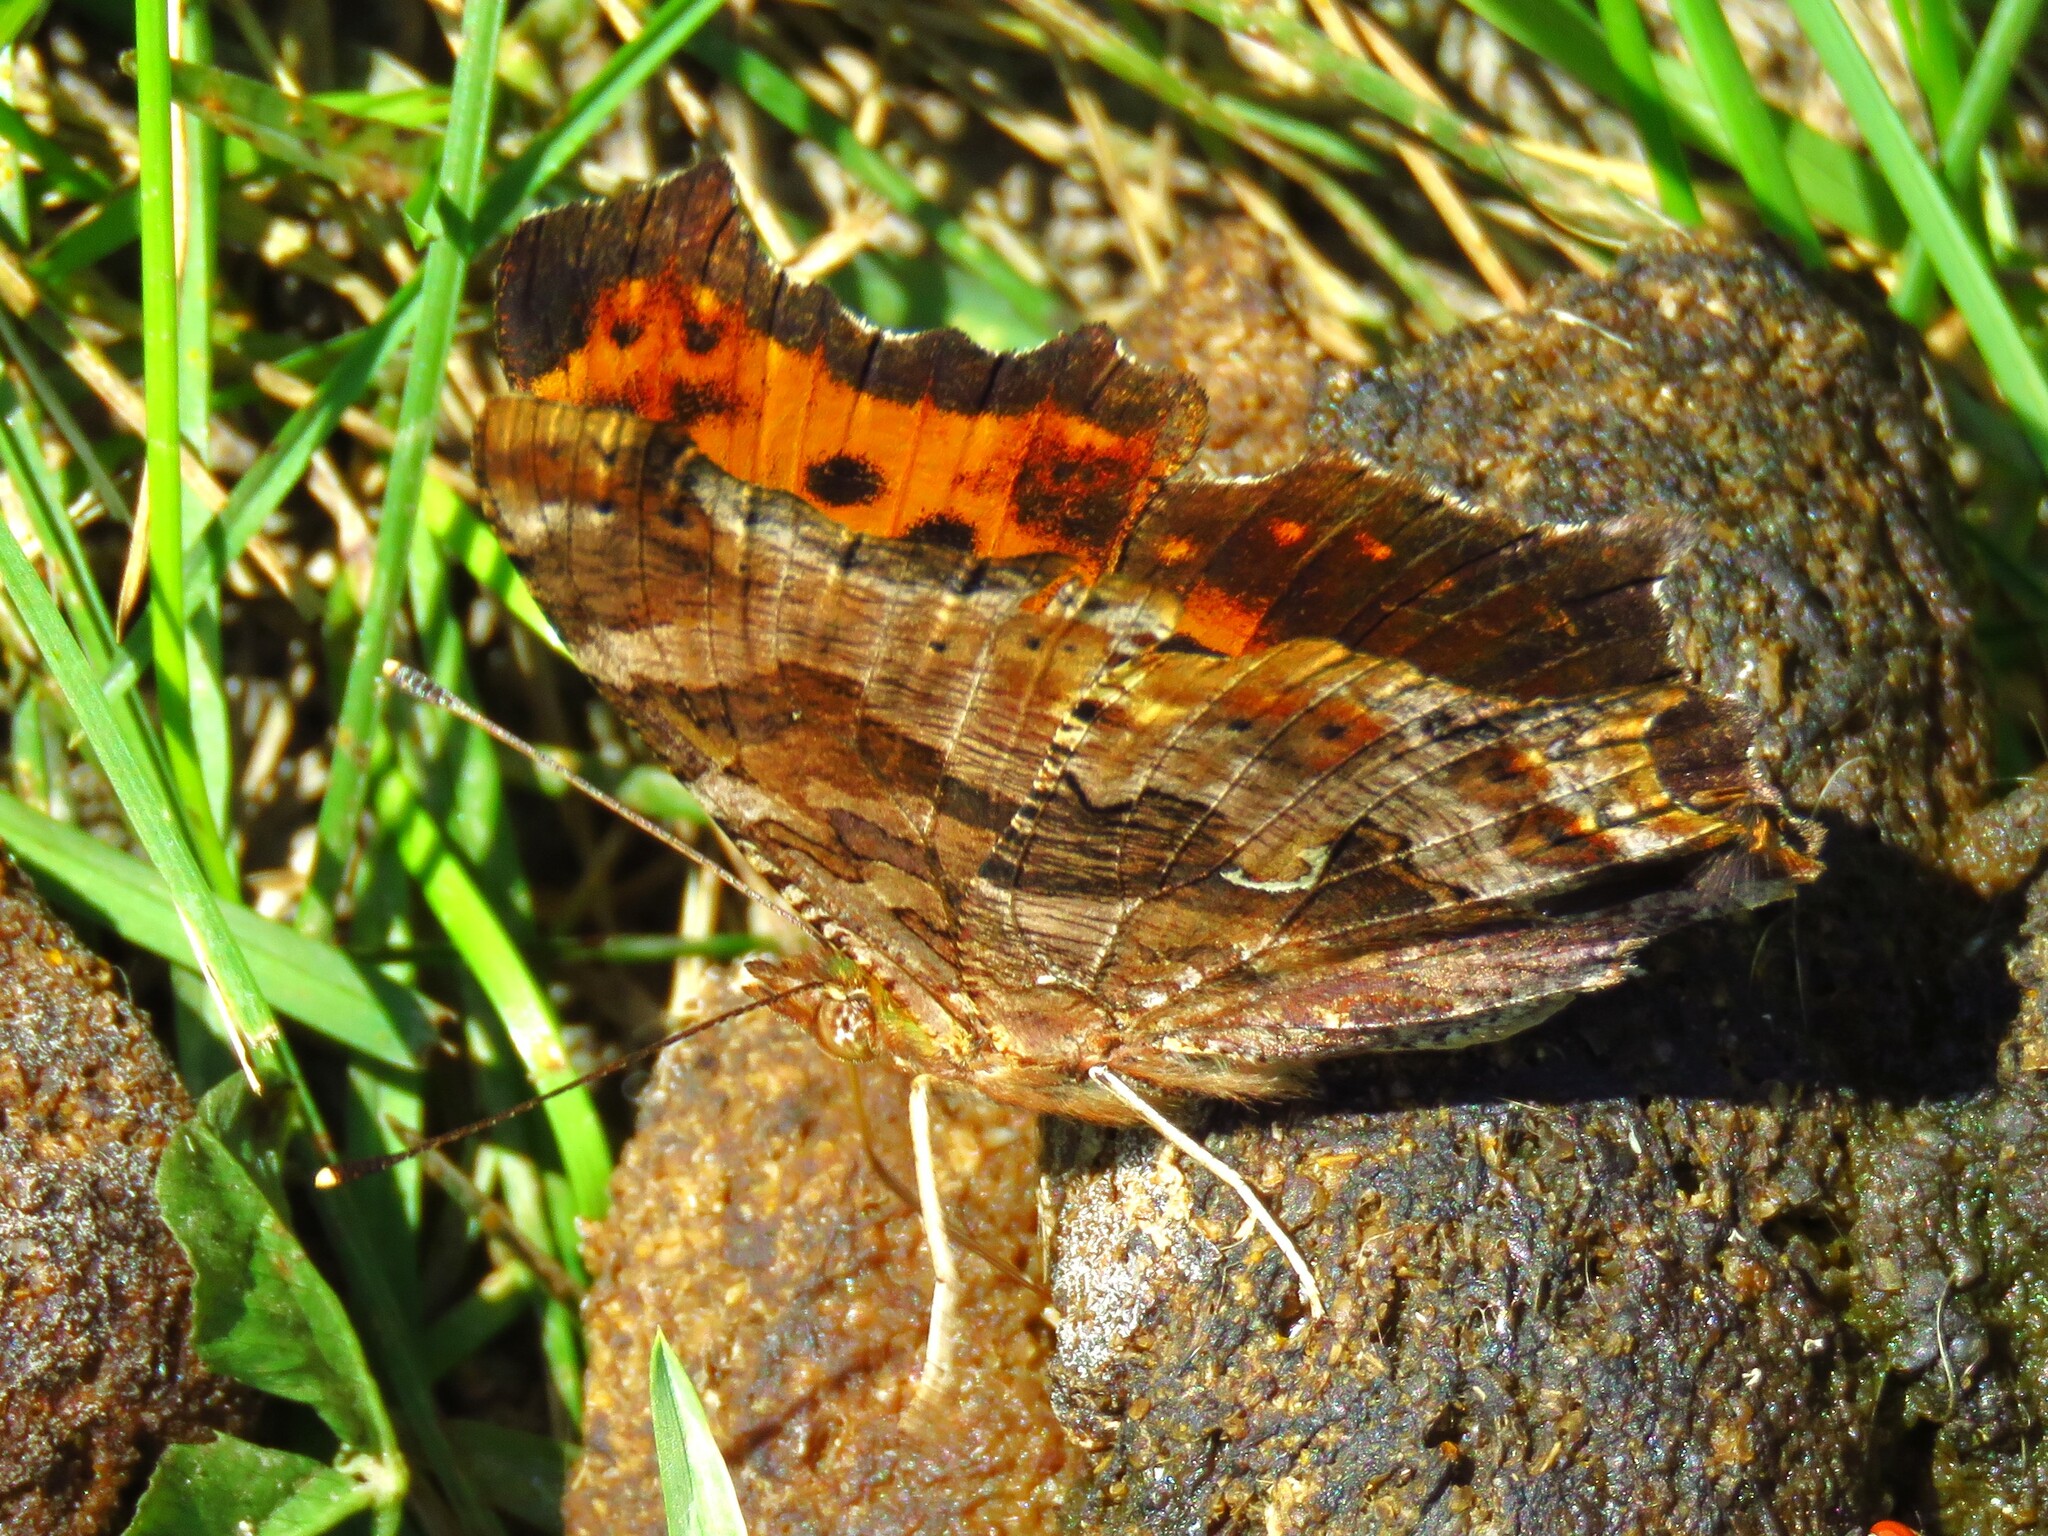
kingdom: Animalia
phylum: Arthropoda
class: Insecta
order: Lepidoptera
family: Nymphalidae
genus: Polygonia
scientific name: Polygonia comma
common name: Eastern comma
